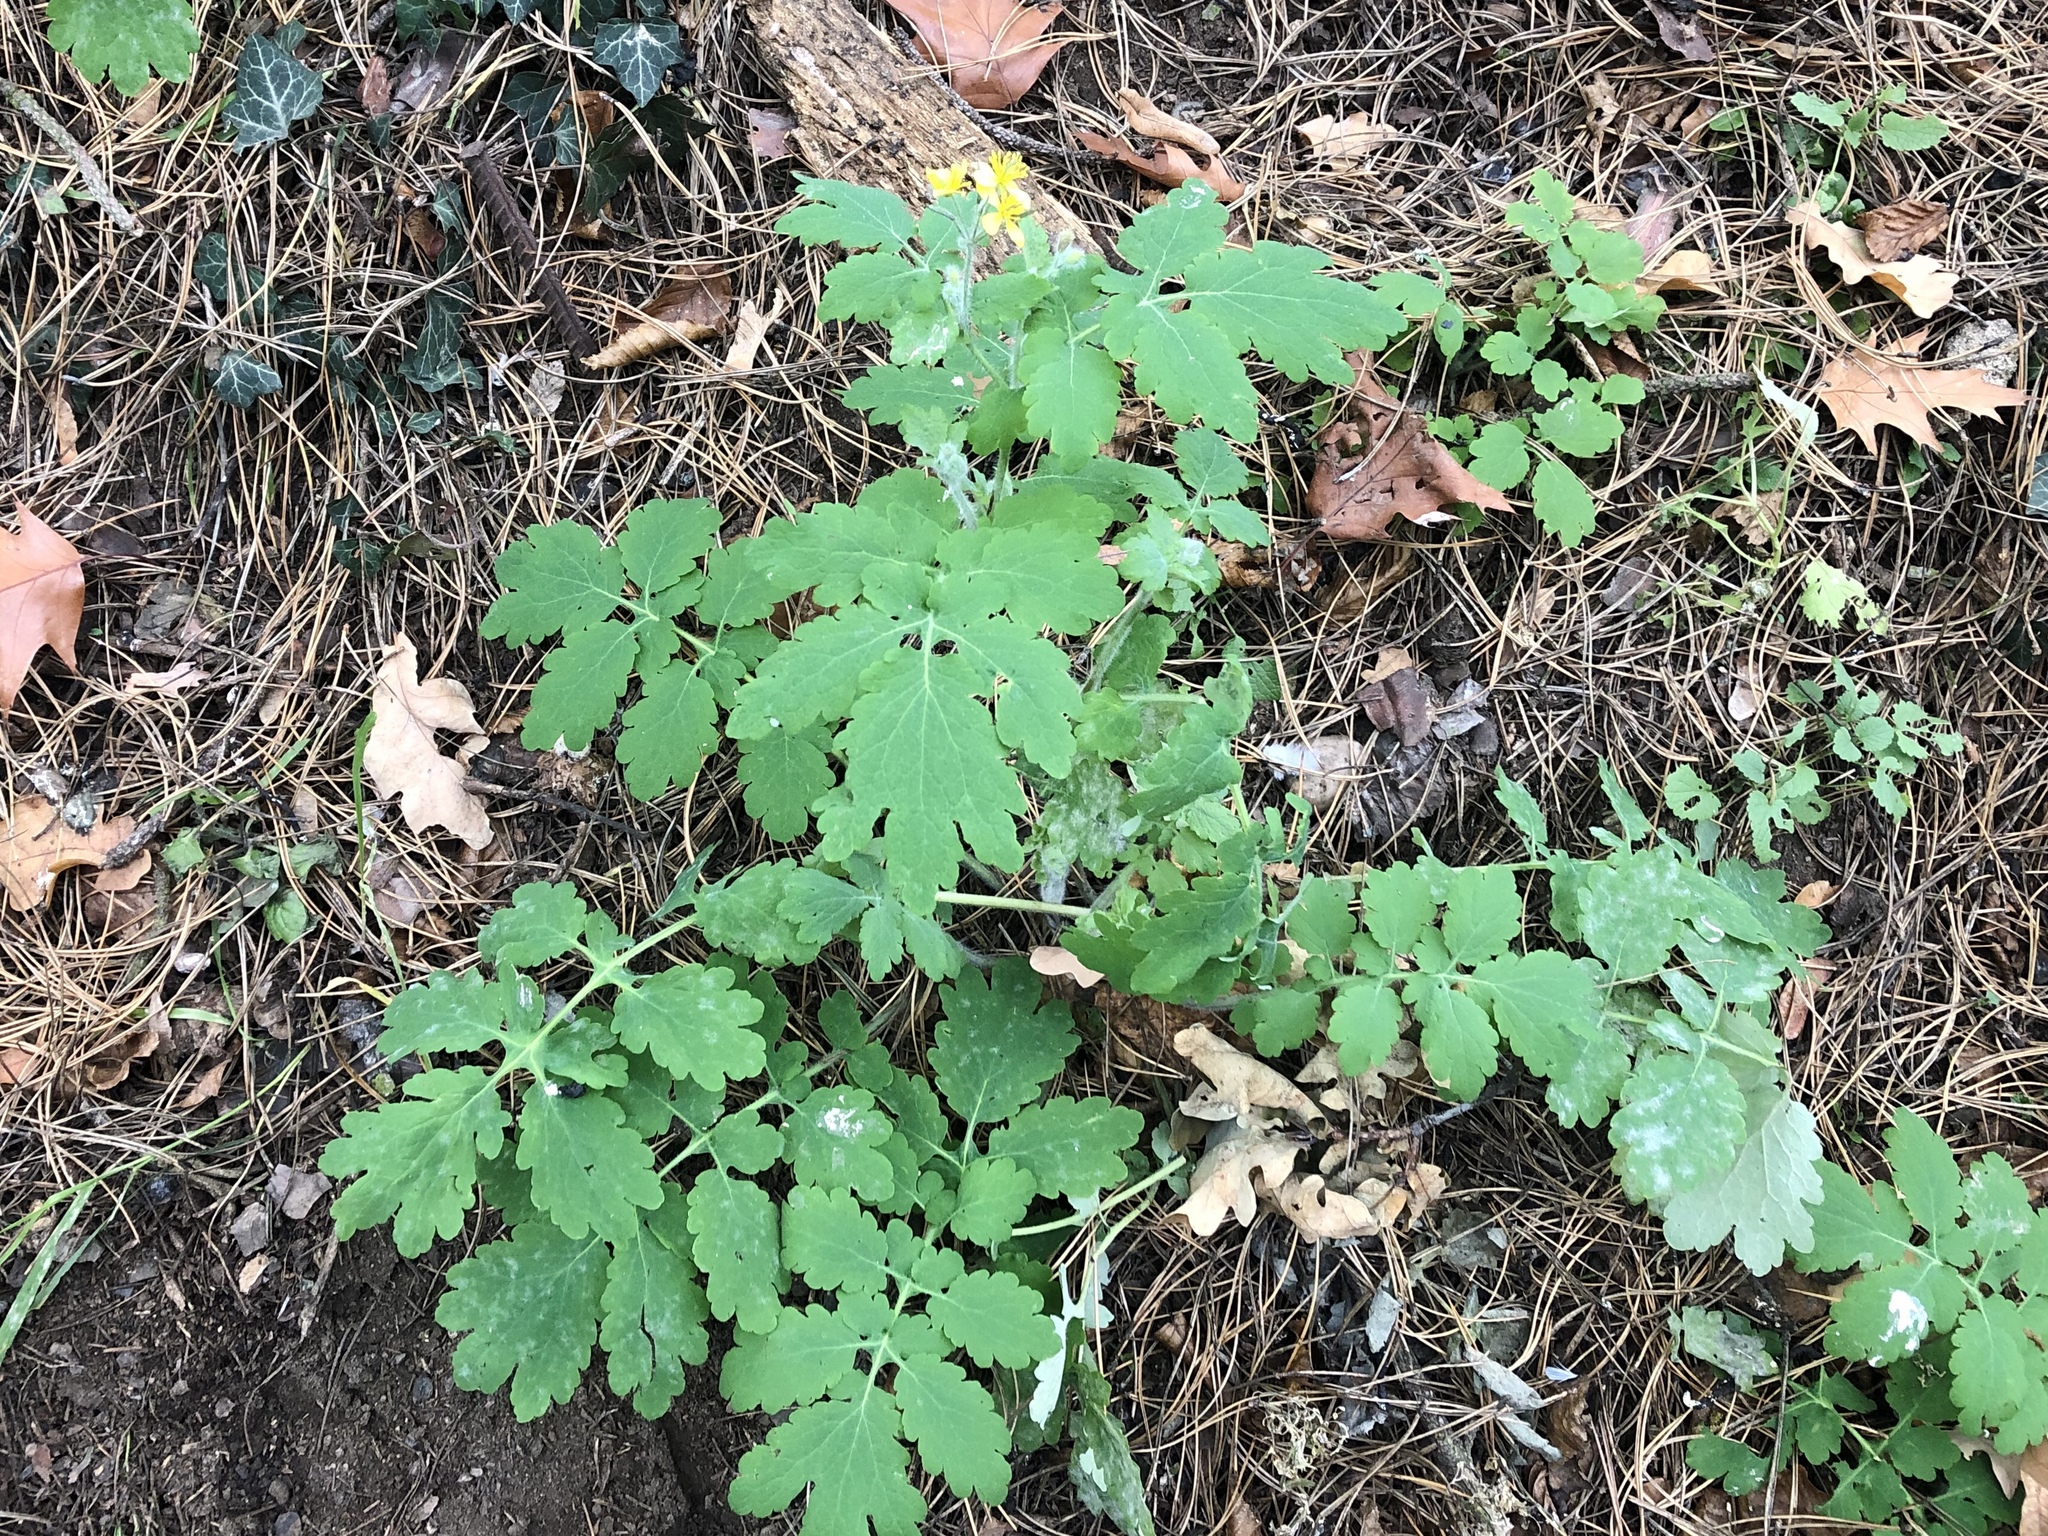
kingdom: Plantae
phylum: Tracheophyta
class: Magnoliopsida
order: Ranunculales
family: Papaveraceae
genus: Chelidonium
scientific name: Chelidonium majus
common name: Greater celandine
